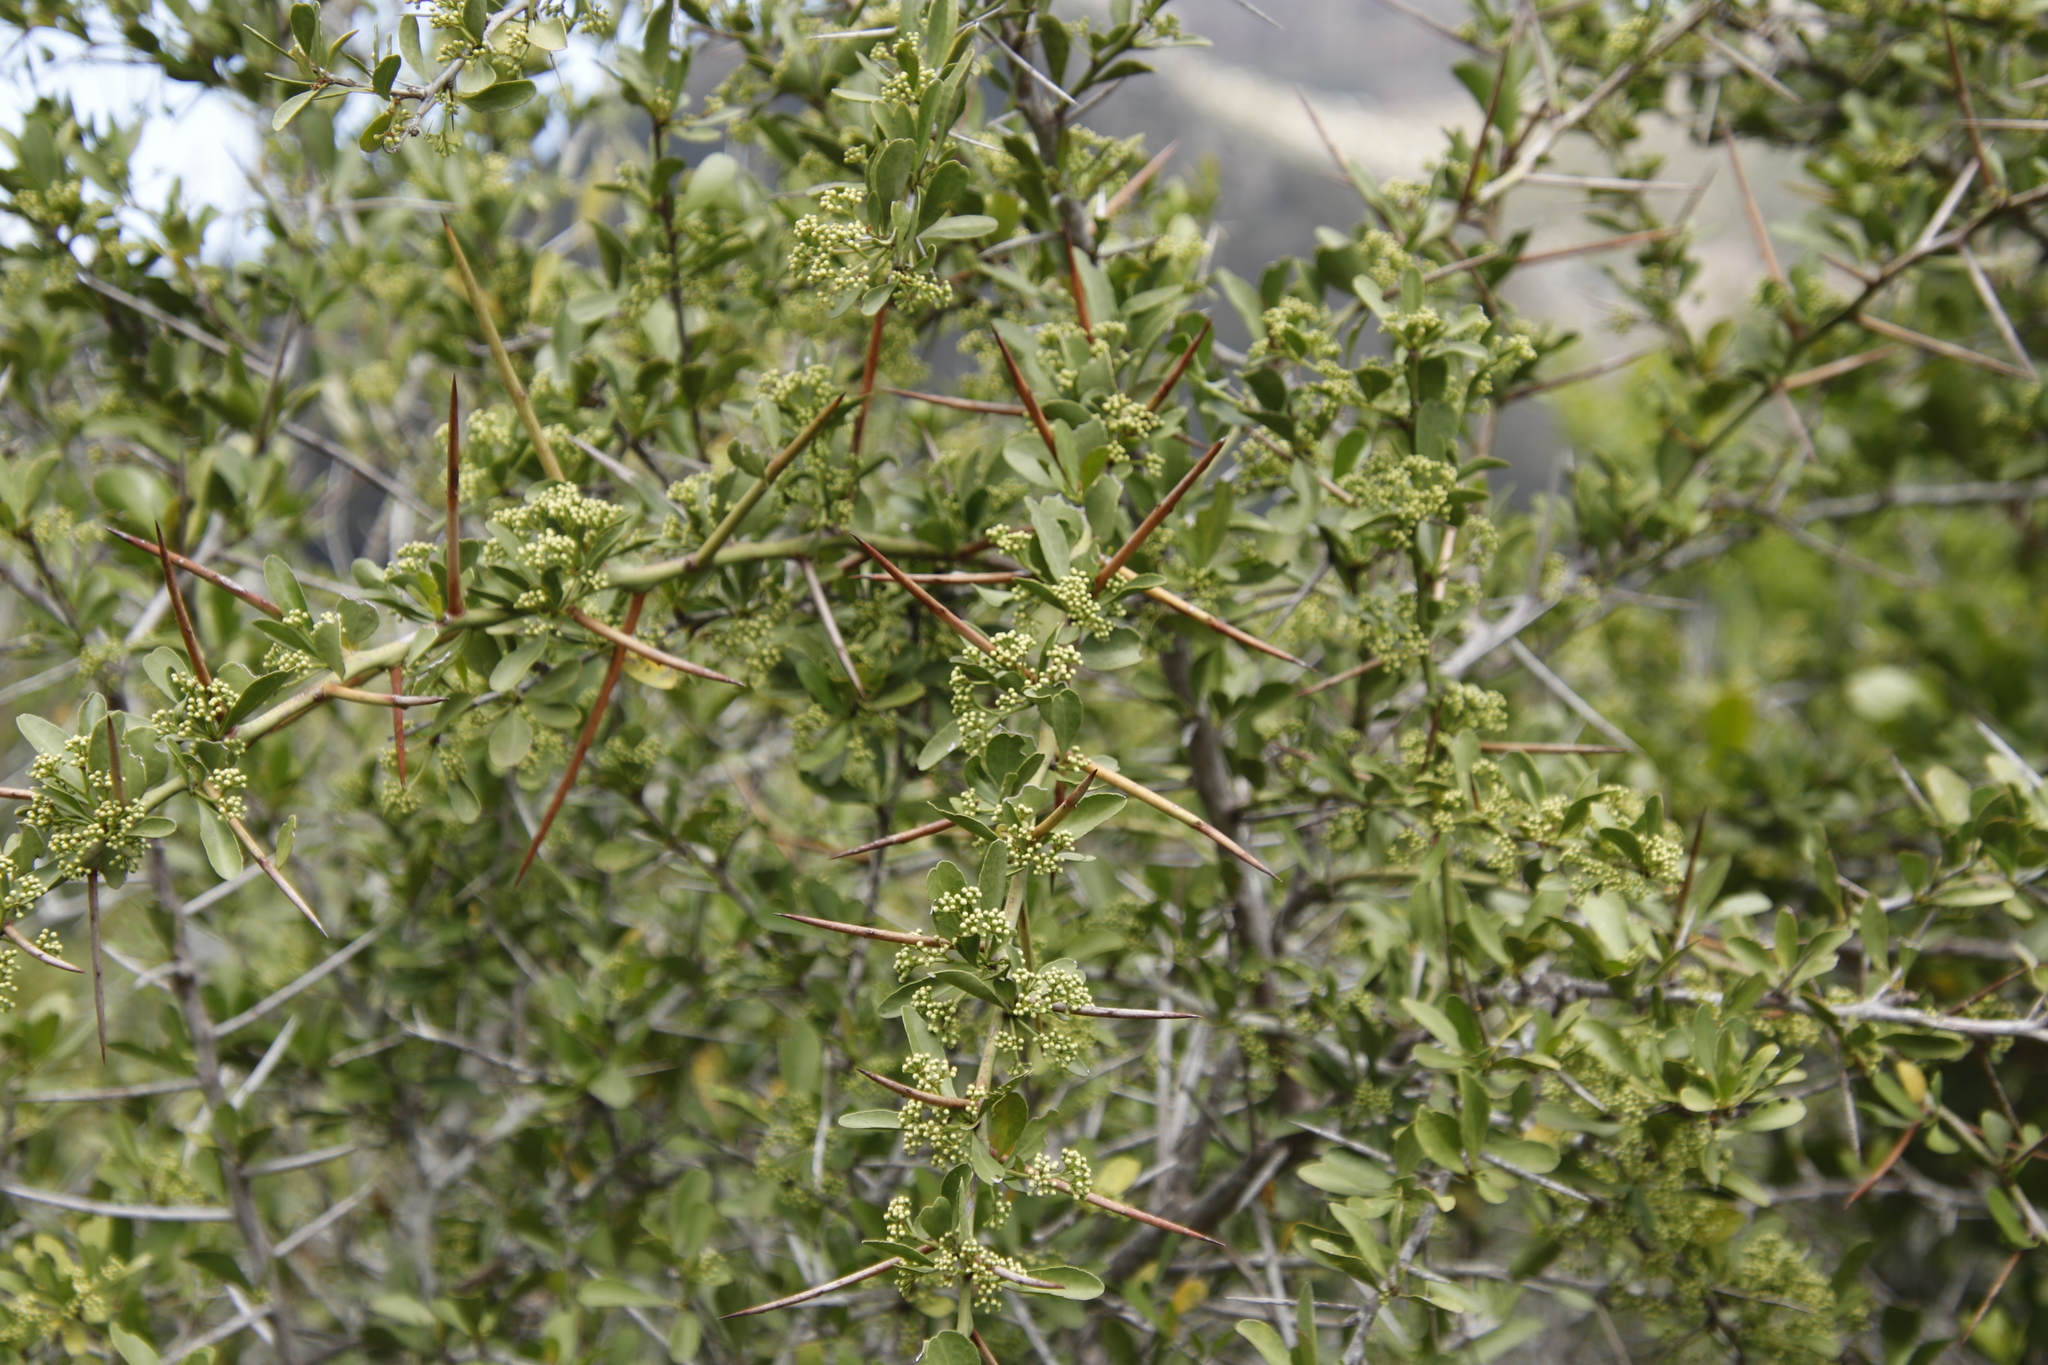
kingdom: Plantae
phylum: Tracheophyta
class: Magnoliopsida
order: Celastrales
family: Celastraceae
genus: Gymnosporia
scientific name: Gymnosporia buxifolia
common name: Common spike-thorn
